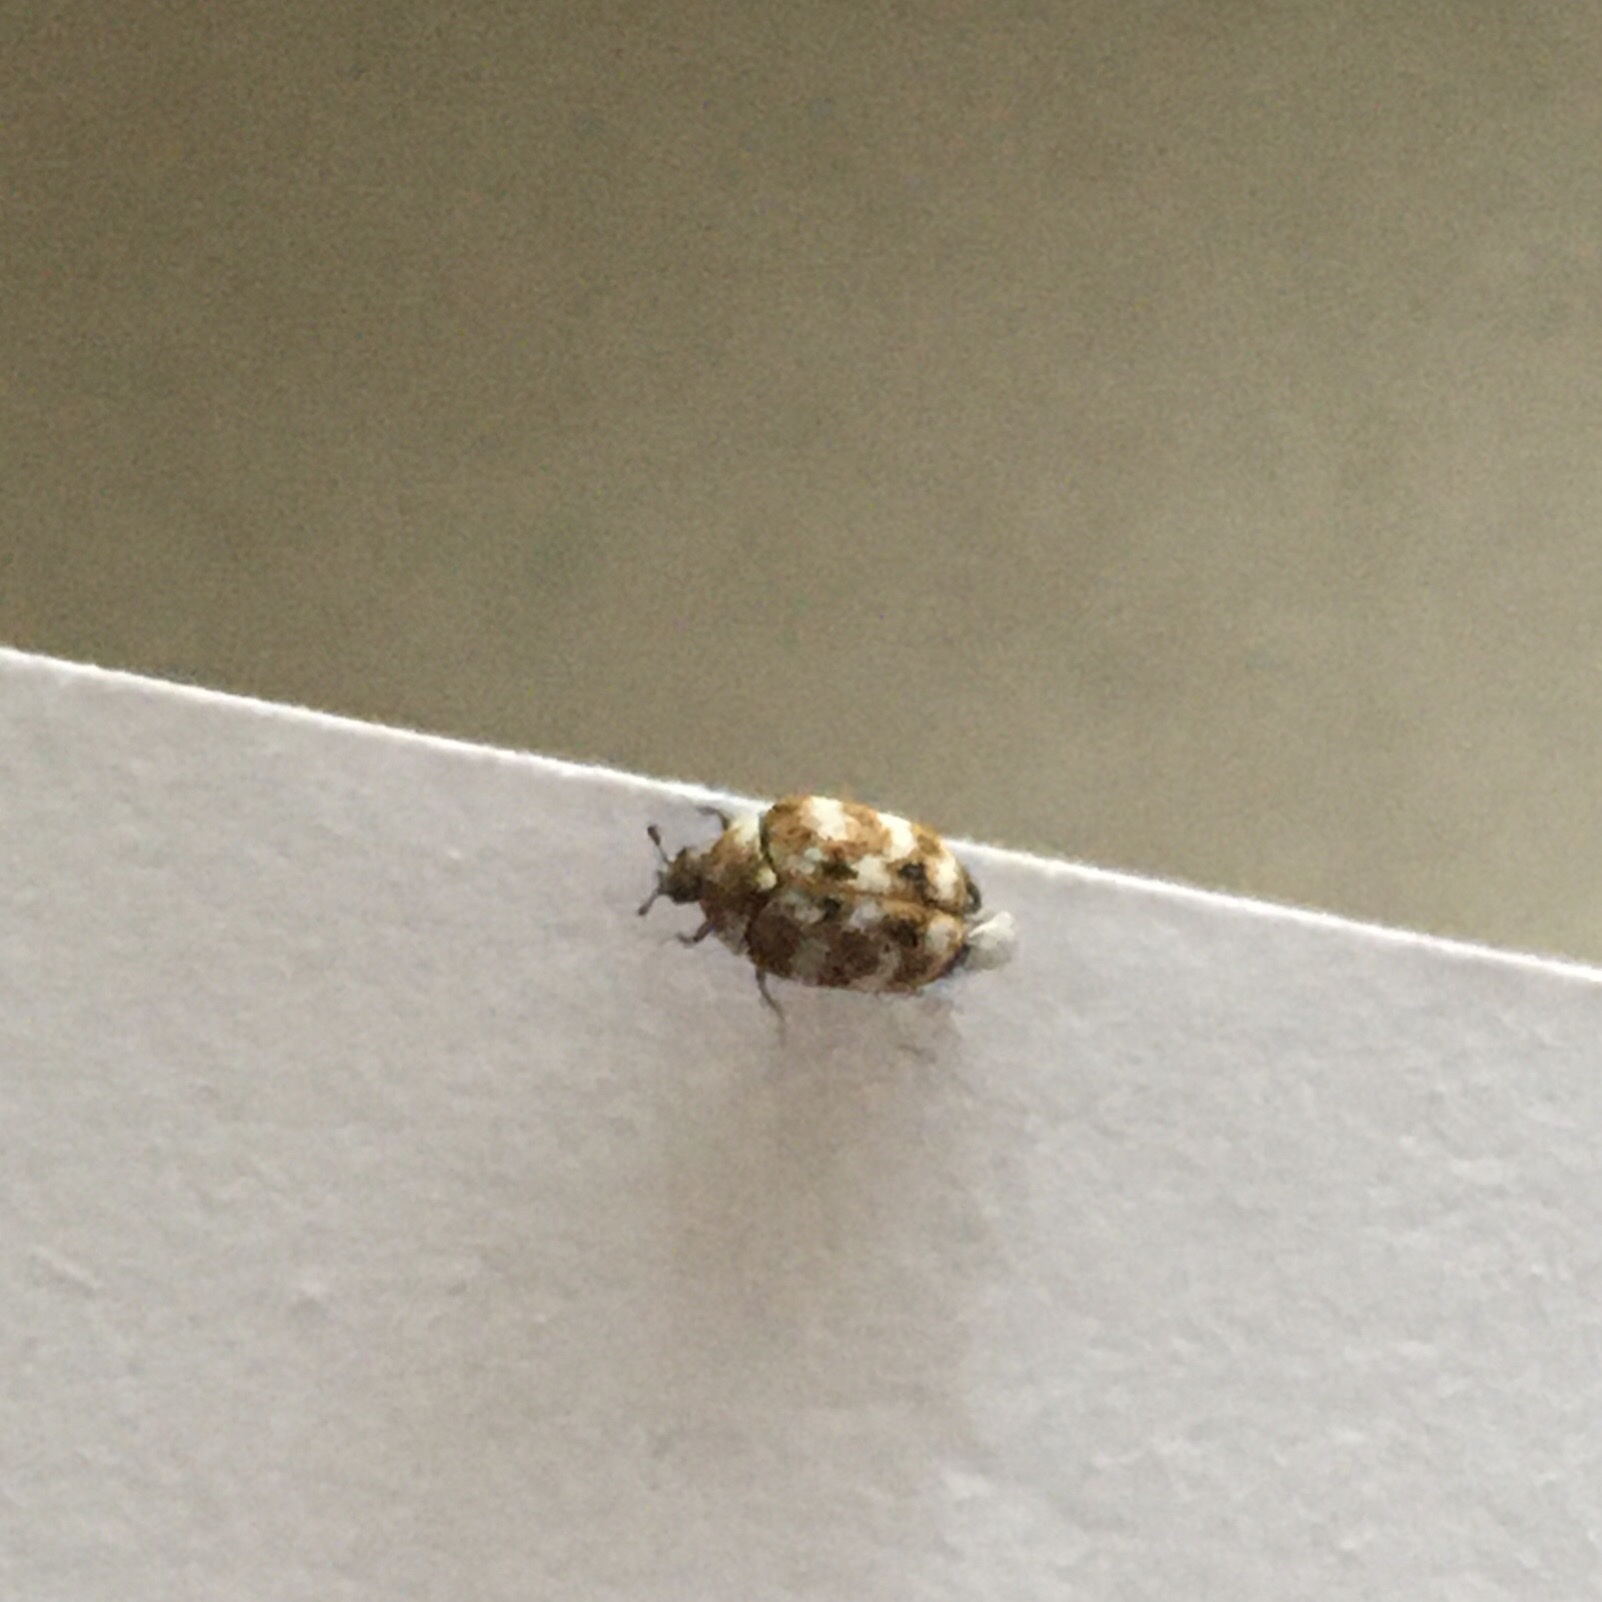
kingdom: Animalia
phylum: Arthropoda
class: Insecta
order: Coleoptera
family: Dermestidae
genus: Anthrenus
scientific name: Anthrenus verbasci
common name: Varied carpet beetle
